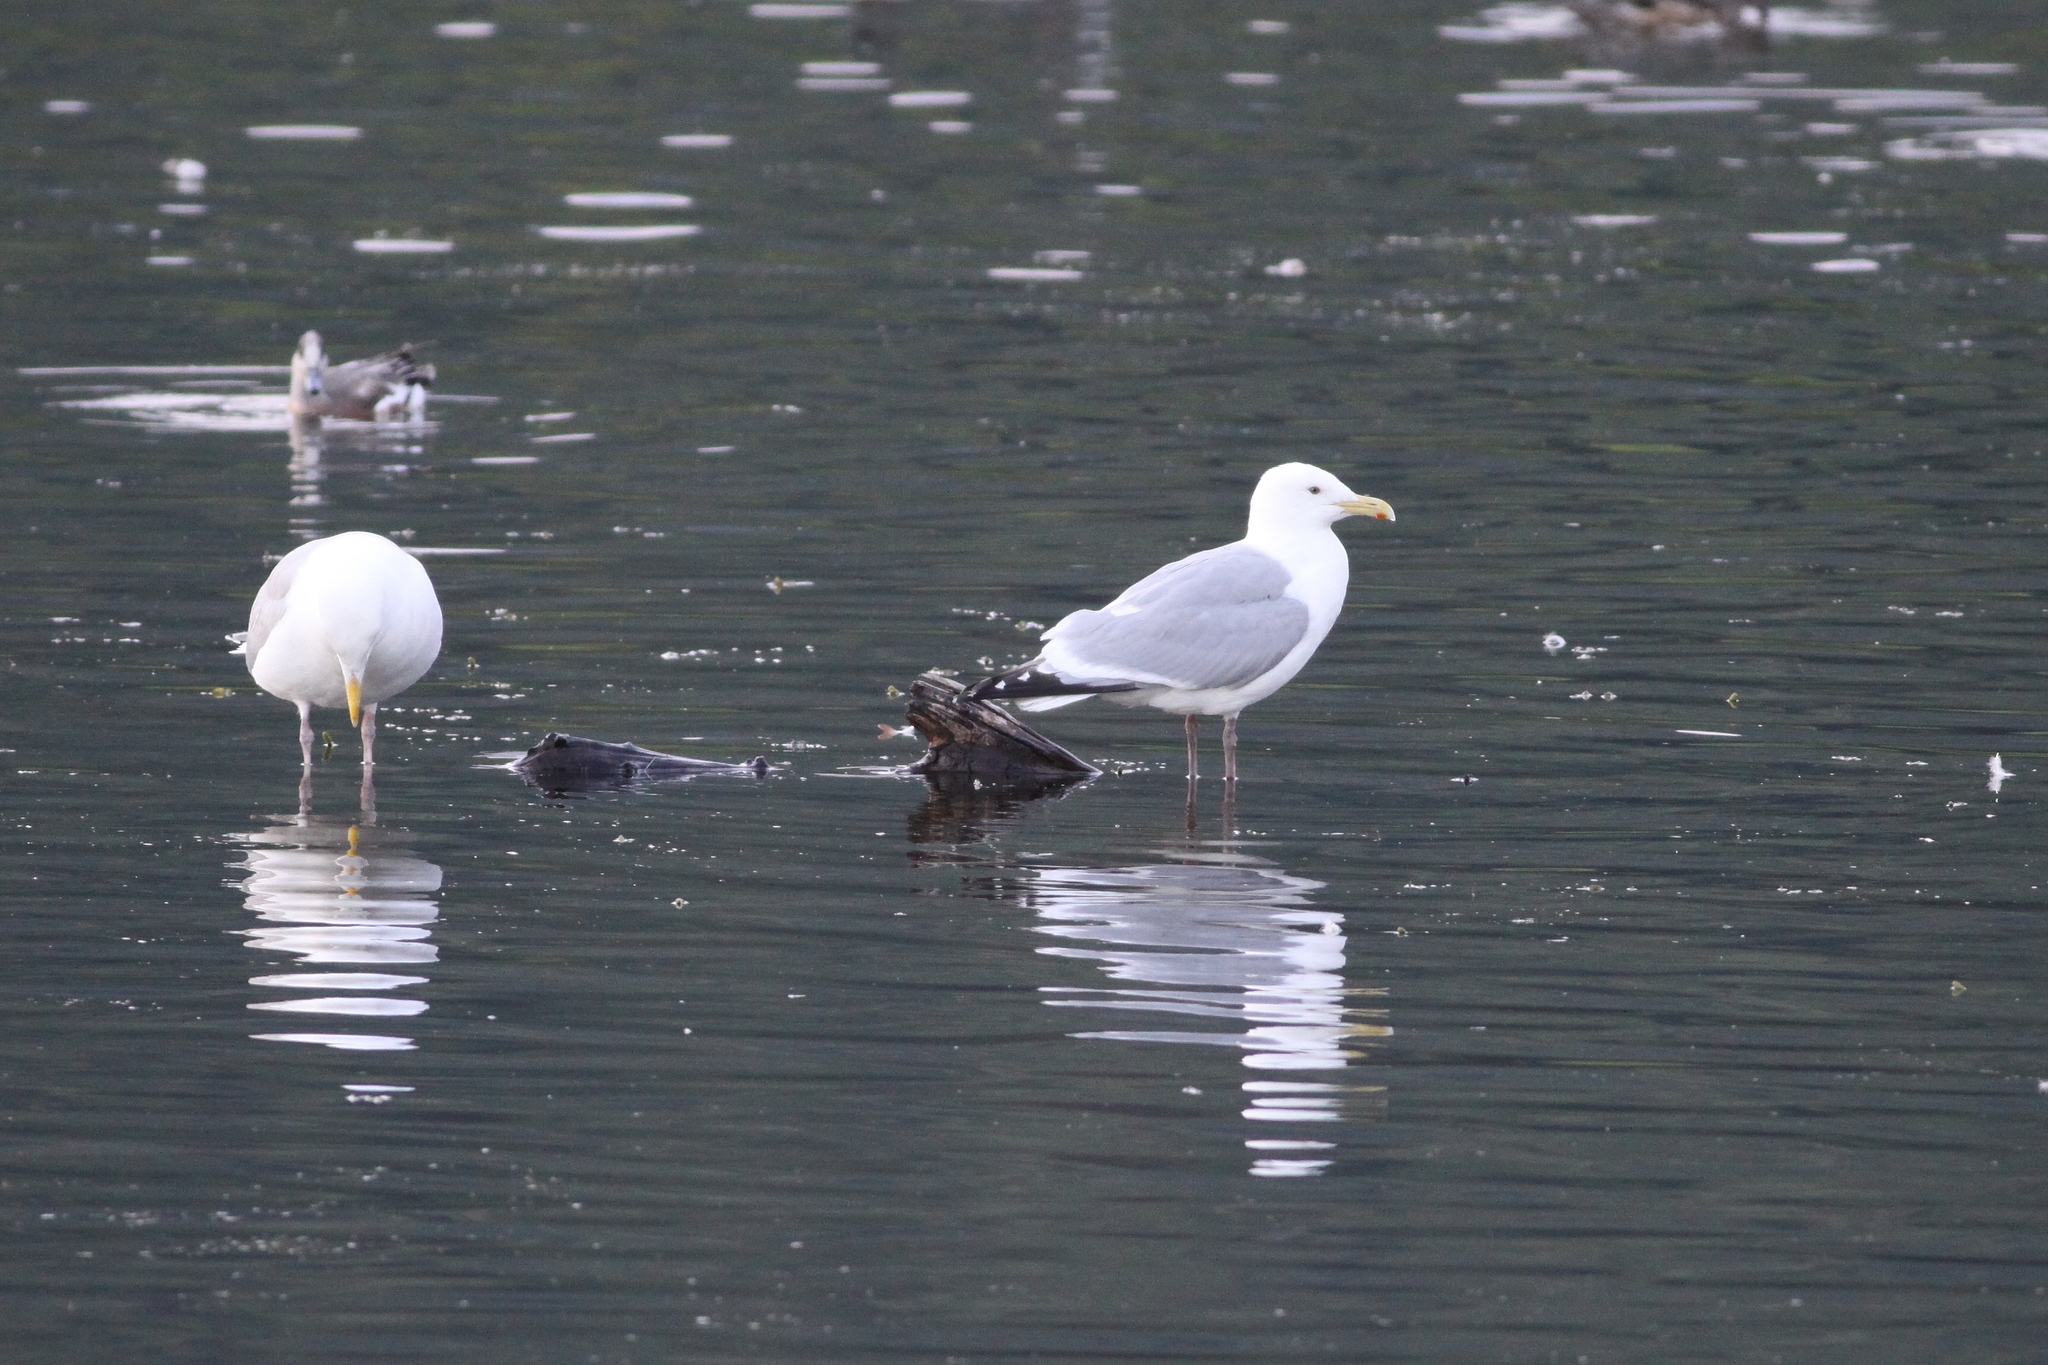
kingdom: Animalia
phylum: Chordata
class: Aves
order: Charadriiformes
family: Laridae
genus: Larus
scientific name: Larus
